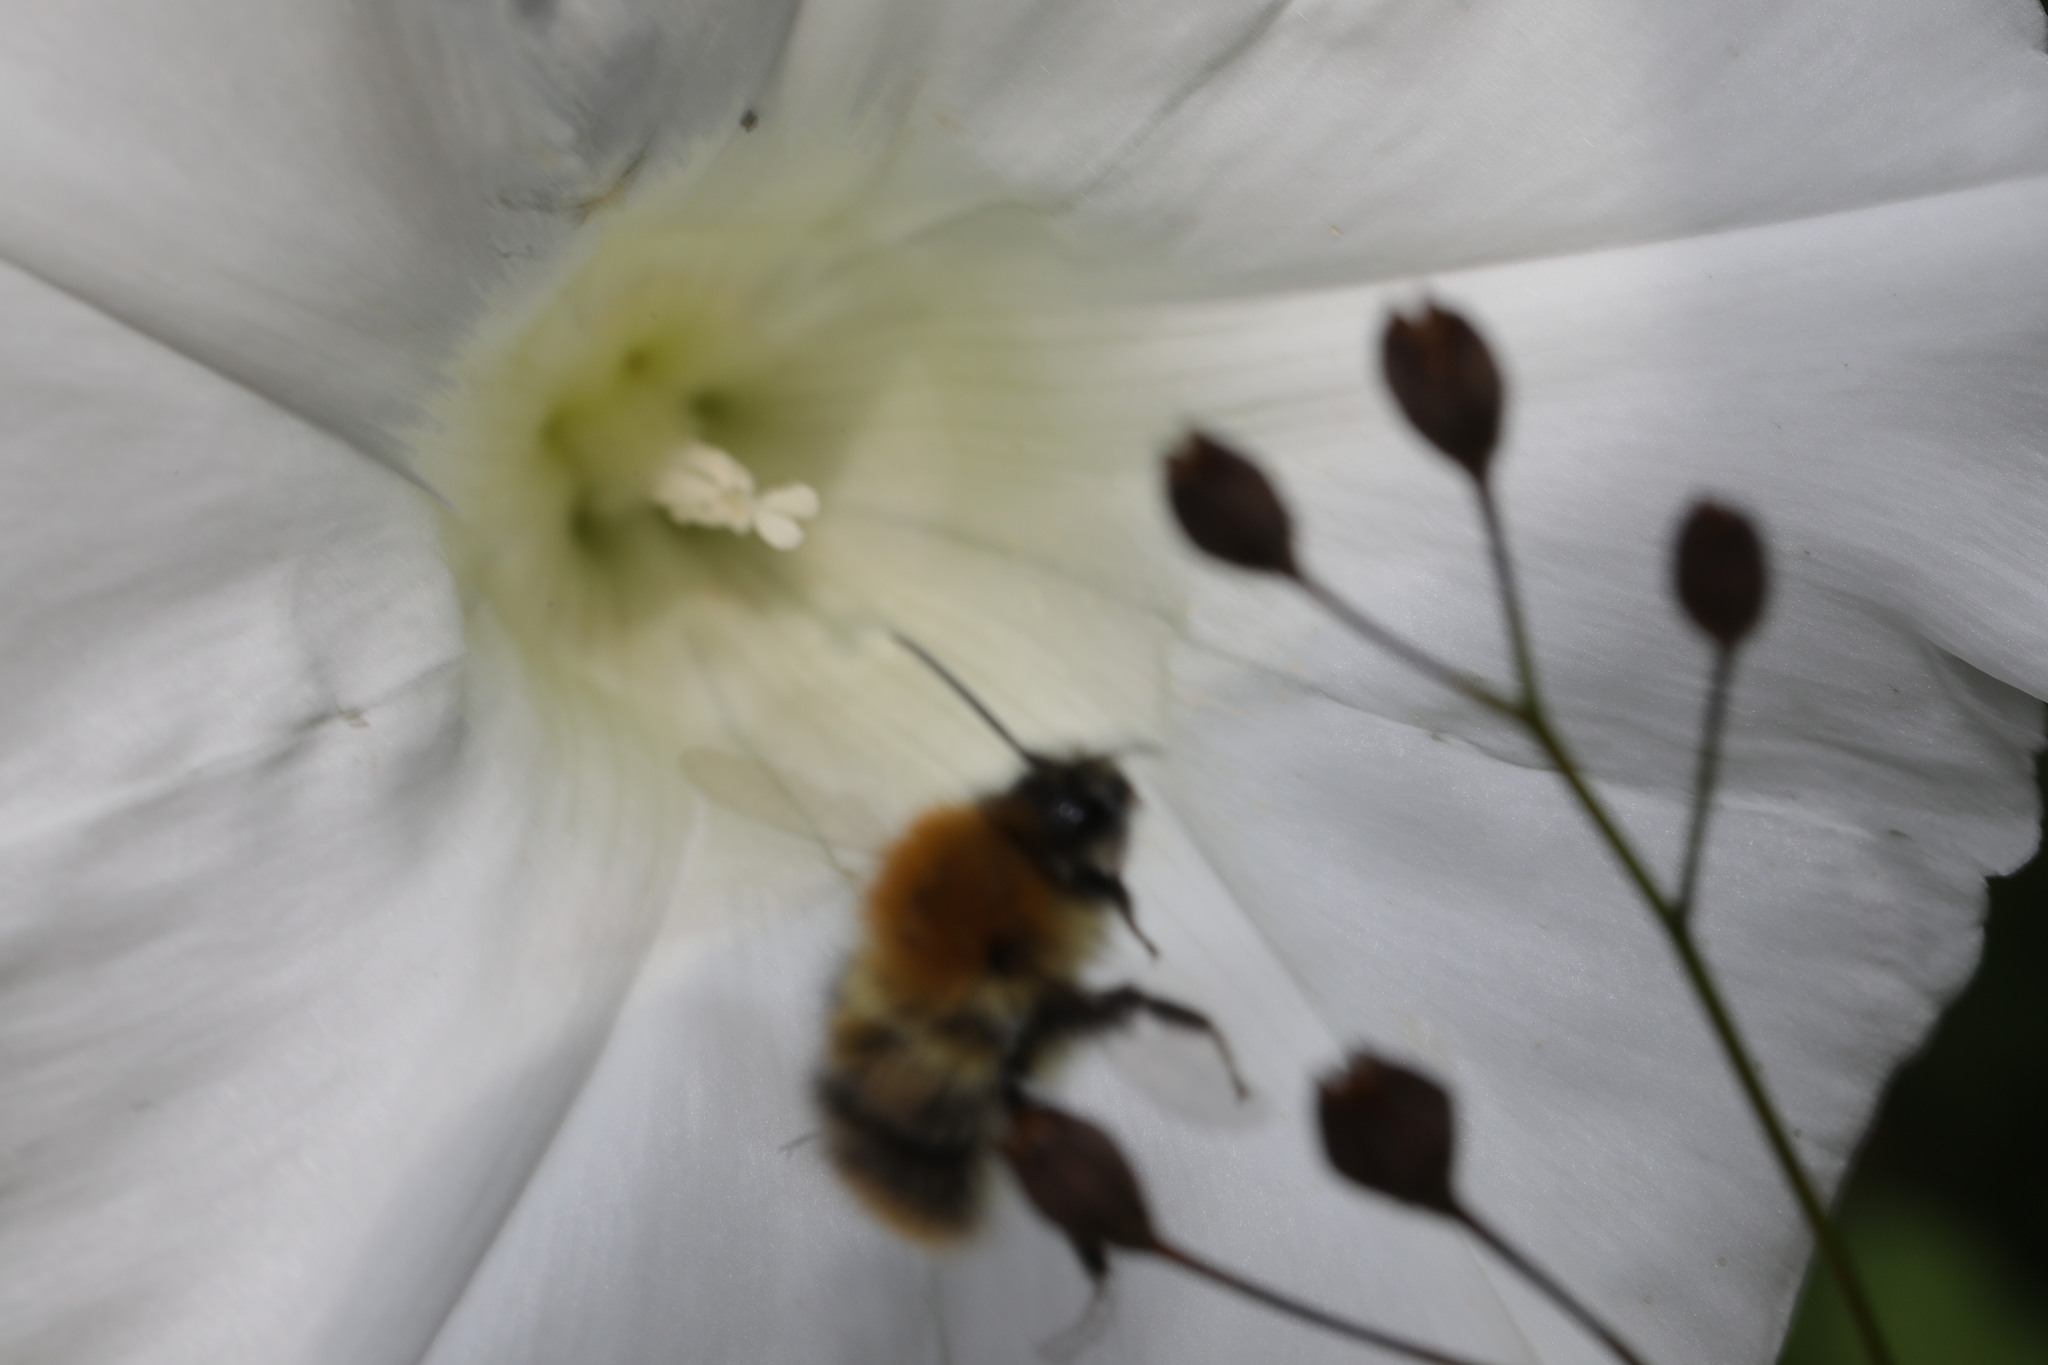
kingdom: Animalia
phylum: Arthropoda
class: Insecta
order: Hymenoptera
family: Apidae
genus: Bombus
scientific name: Bombus pascuorum
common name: Common carder bee
